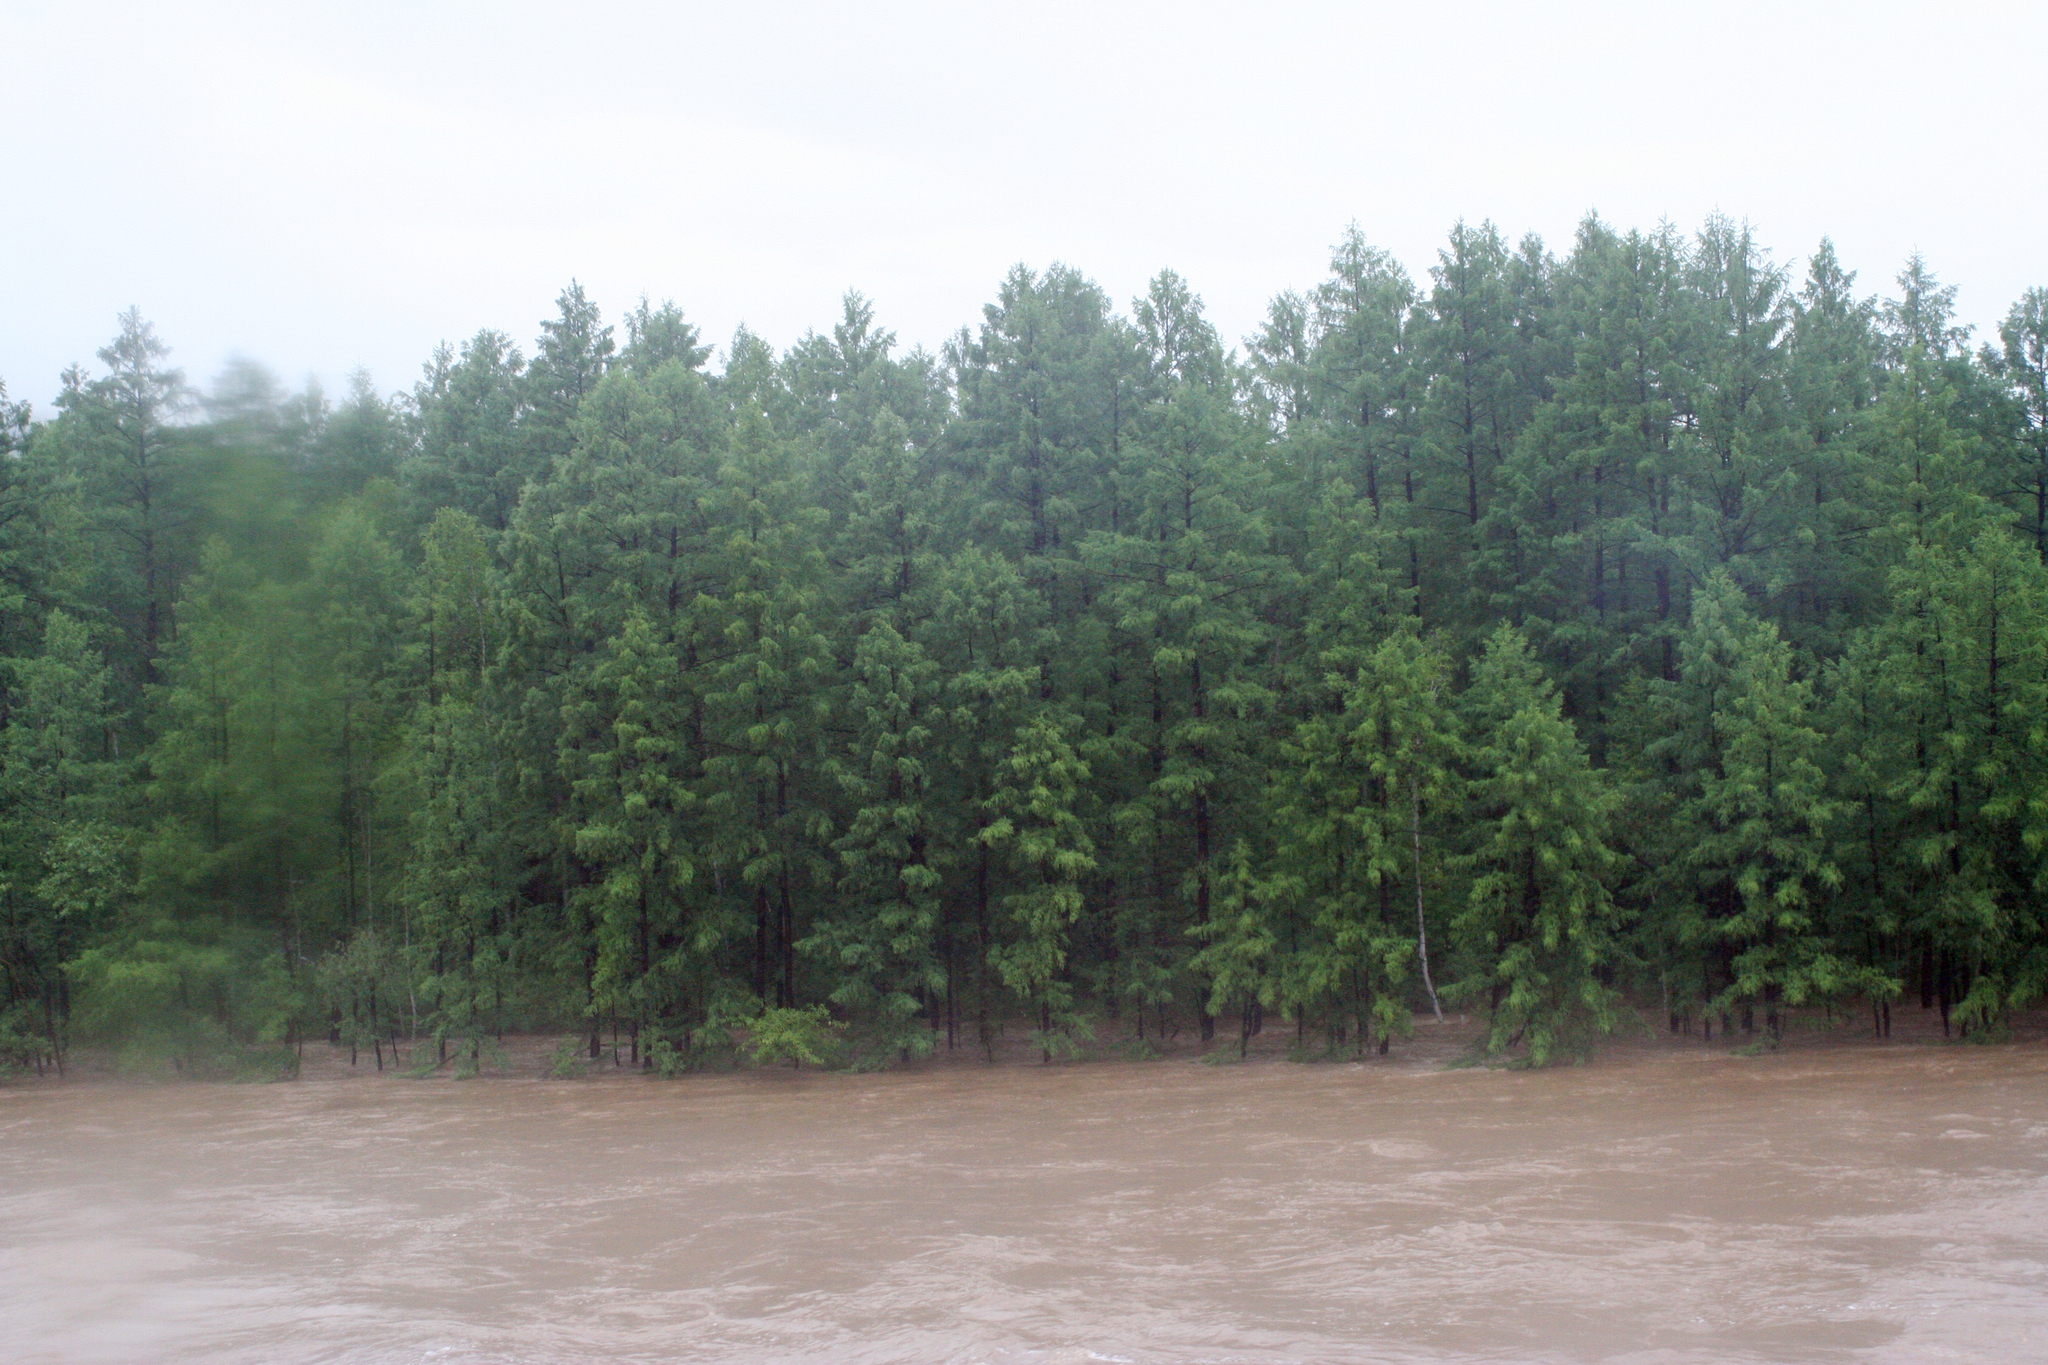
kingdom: Plantae
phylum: Tracheophyta
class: Pinopsida
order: Pinales
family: Pinaceae
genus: Larix
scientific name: Larix gmelinii
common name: Dahurian larch
